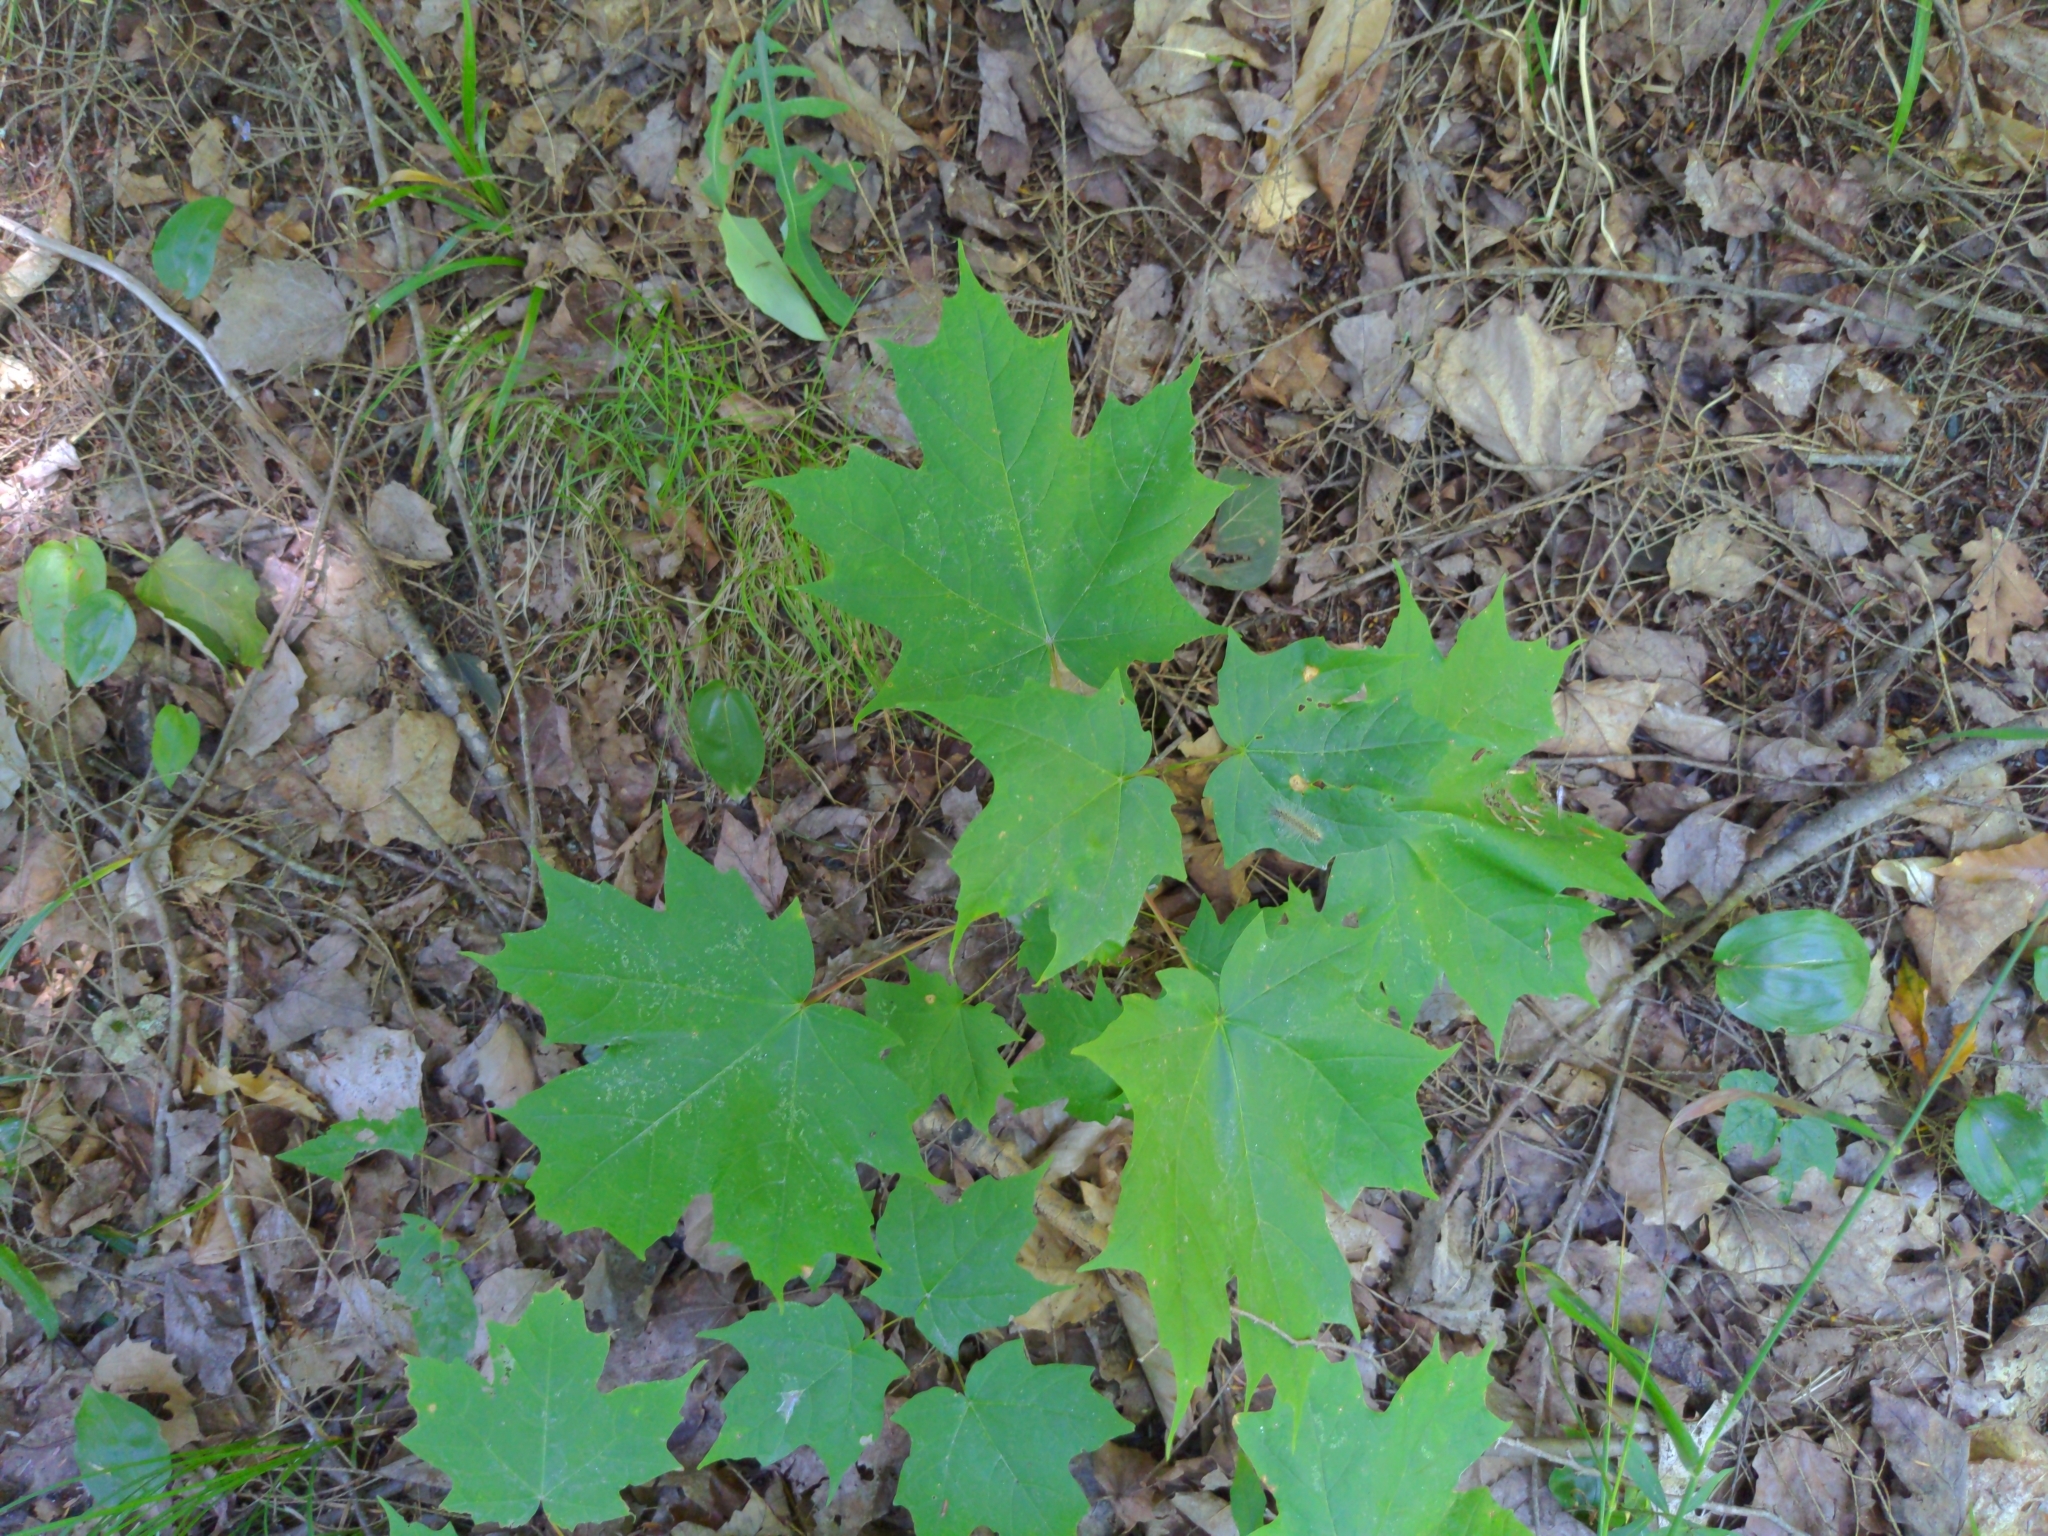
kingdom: Plantae
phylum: Tracheophyta
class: Magnoliopsida
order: Sapindales
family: Sapindaceae
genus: Acer
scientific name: Acer saccharum
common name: Sugar maple
